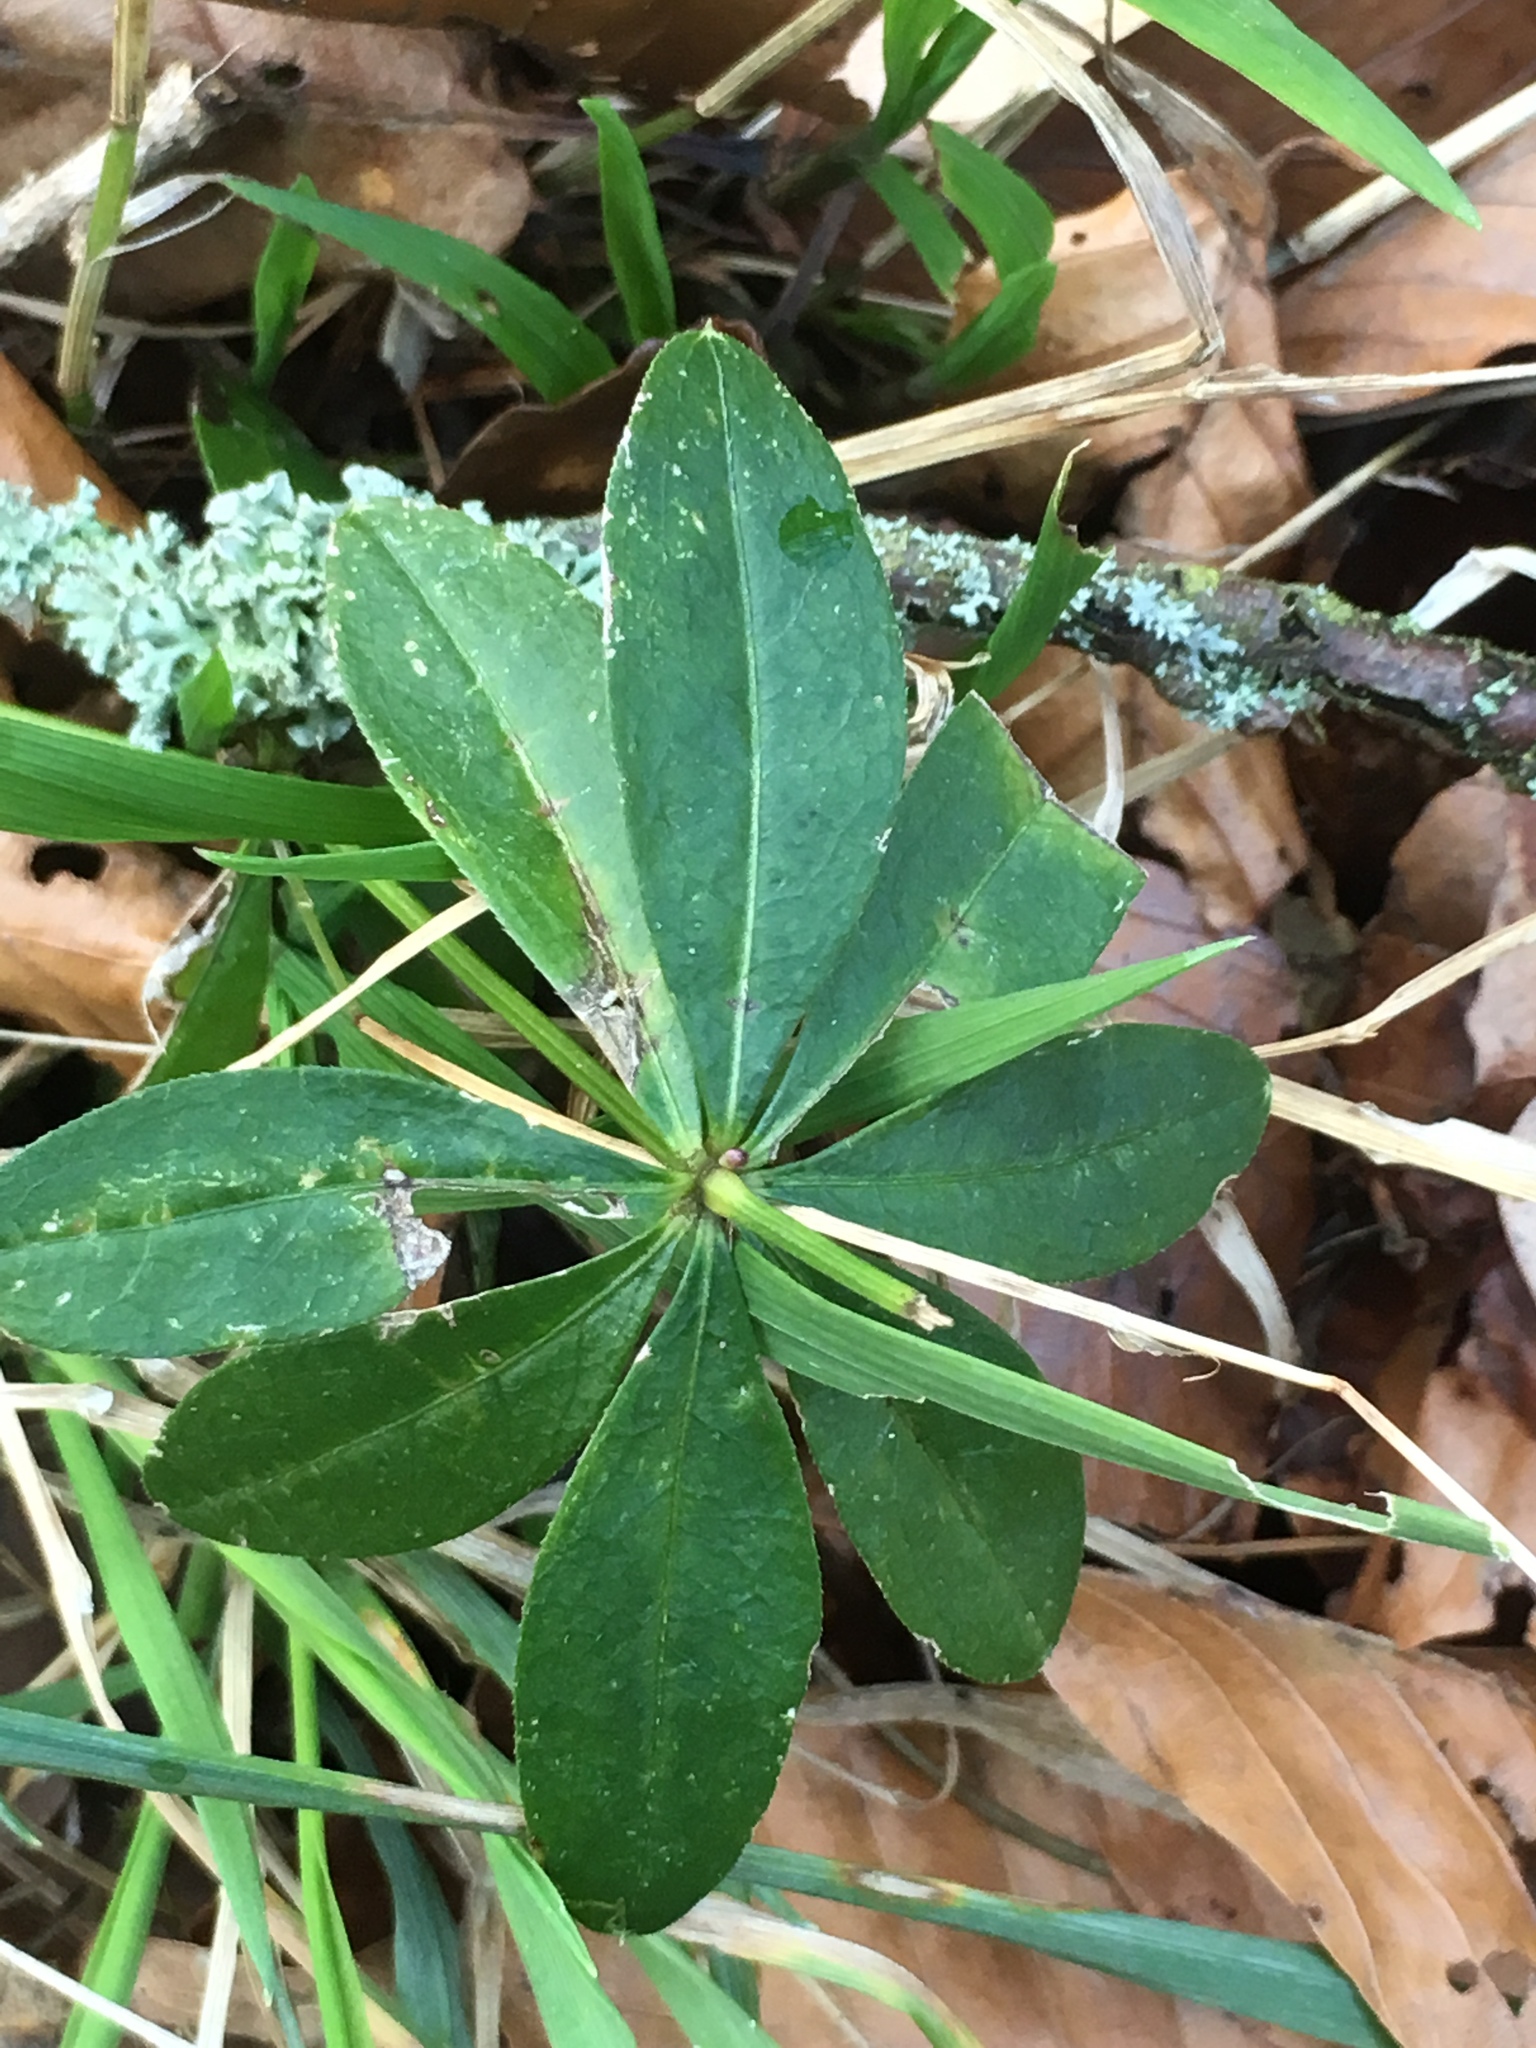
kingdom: Plantae
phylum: Tracheophyta
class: Magnoliopsida
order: Gentianales
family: Rubiaceae
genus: Galium
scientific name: Galium odoratum
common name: Sweet woodruff
